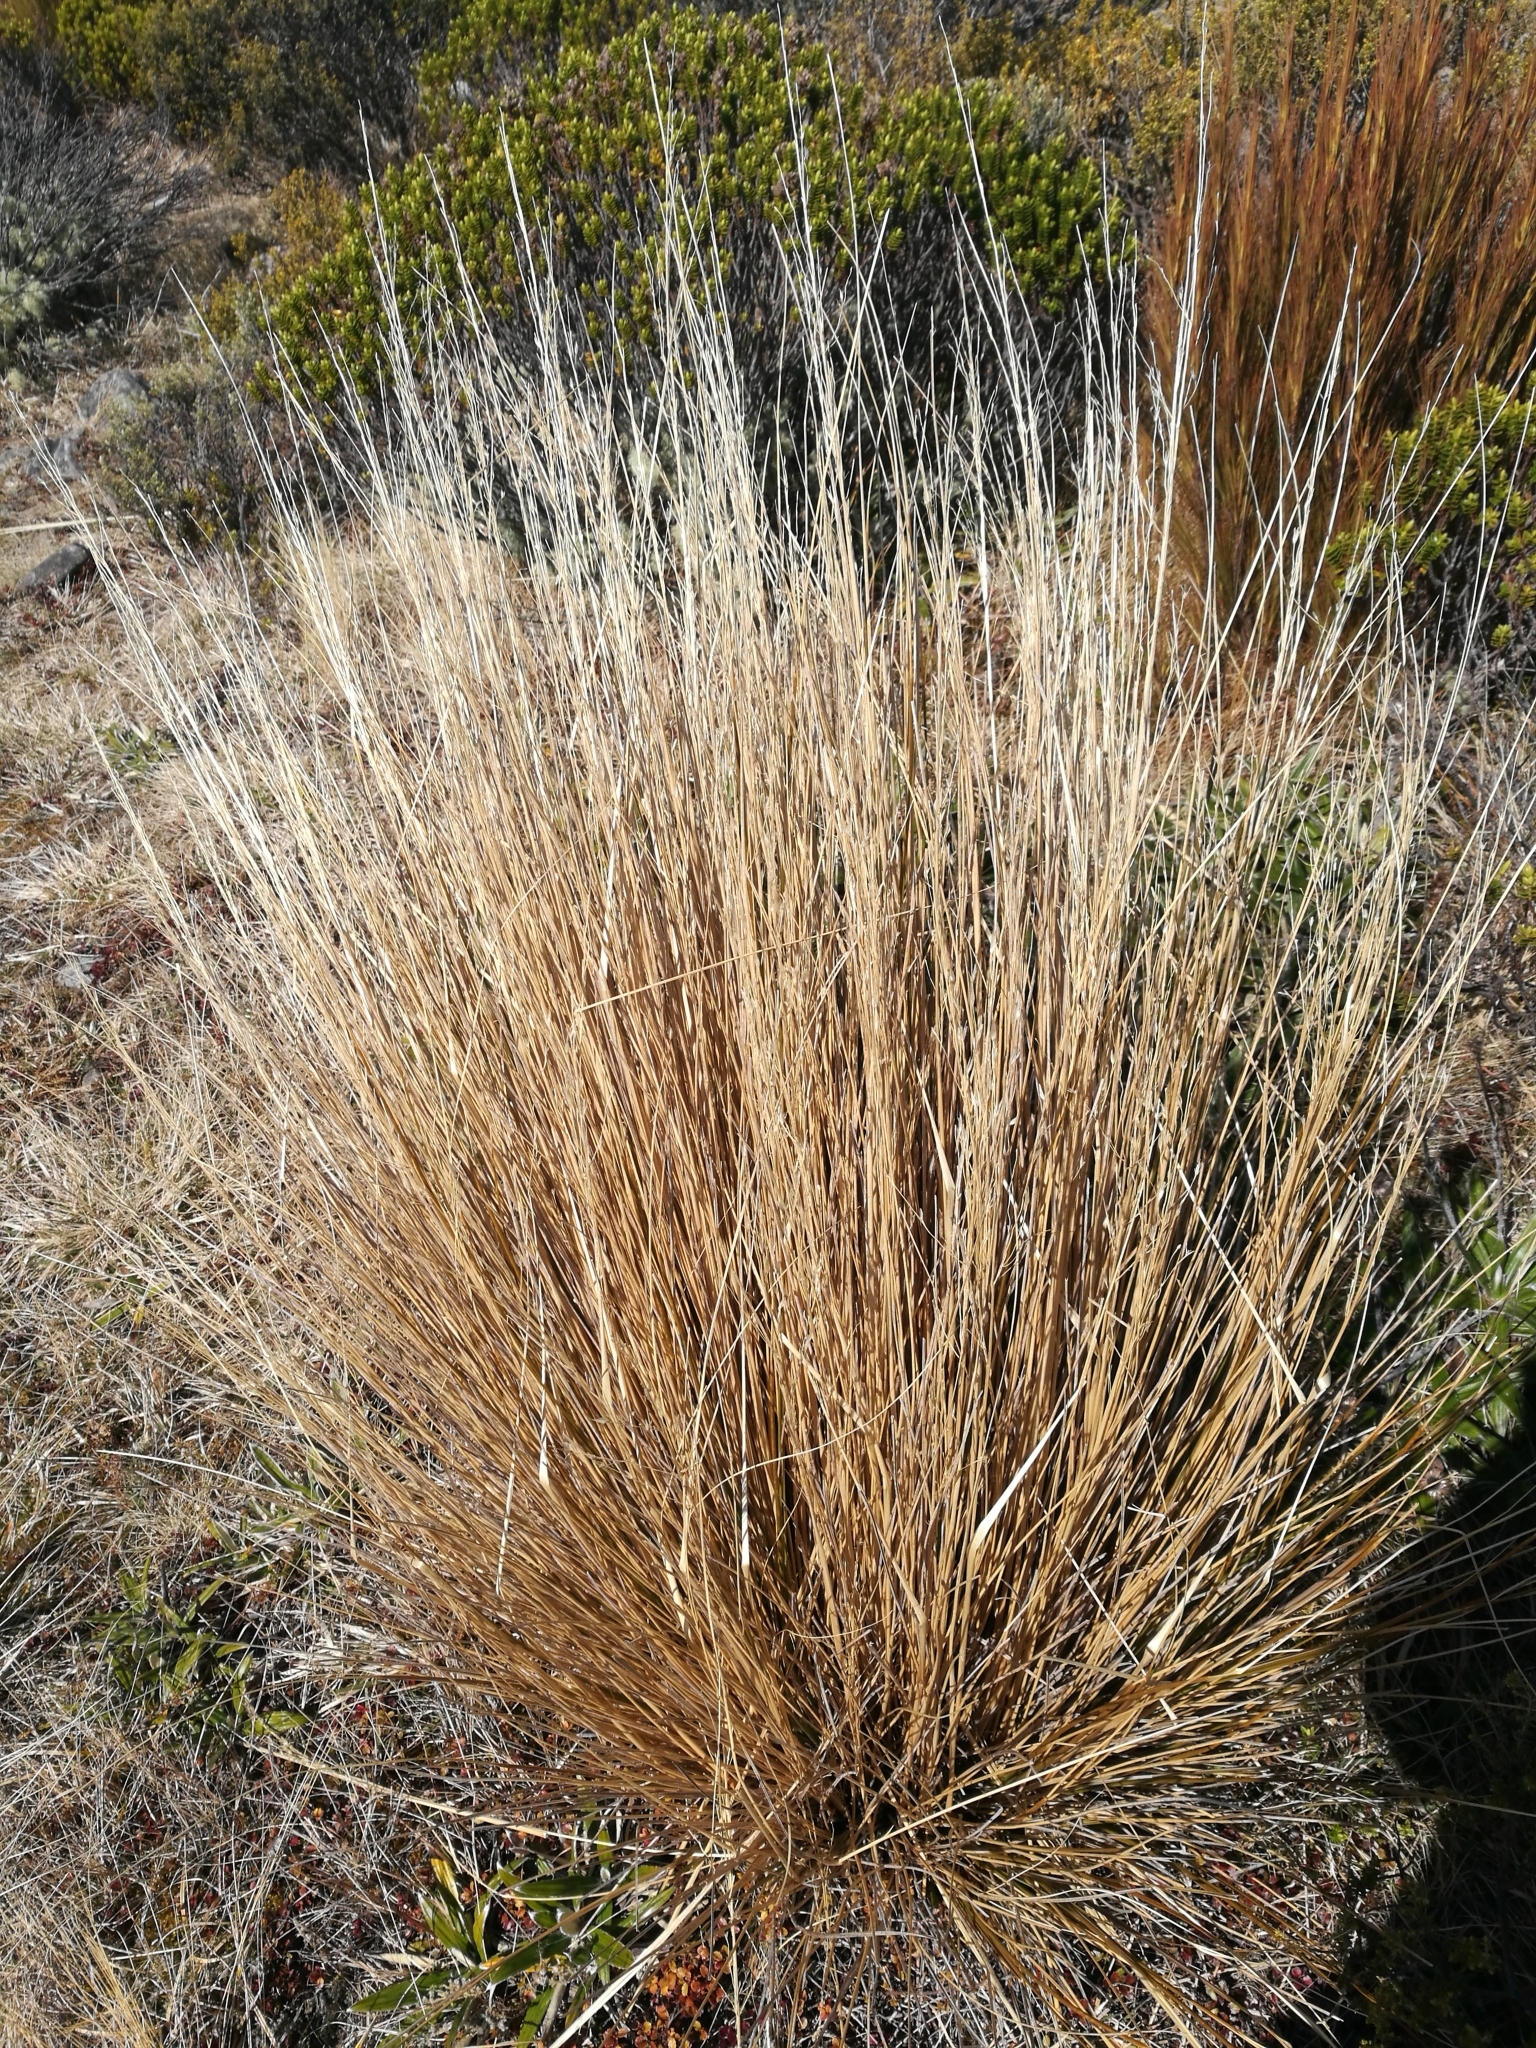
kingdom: Plantae
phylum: Tracheophyta
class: Liliopsida
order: Poales
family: Poaceae
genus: Chionochloa
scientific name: Chionochloa rubra
